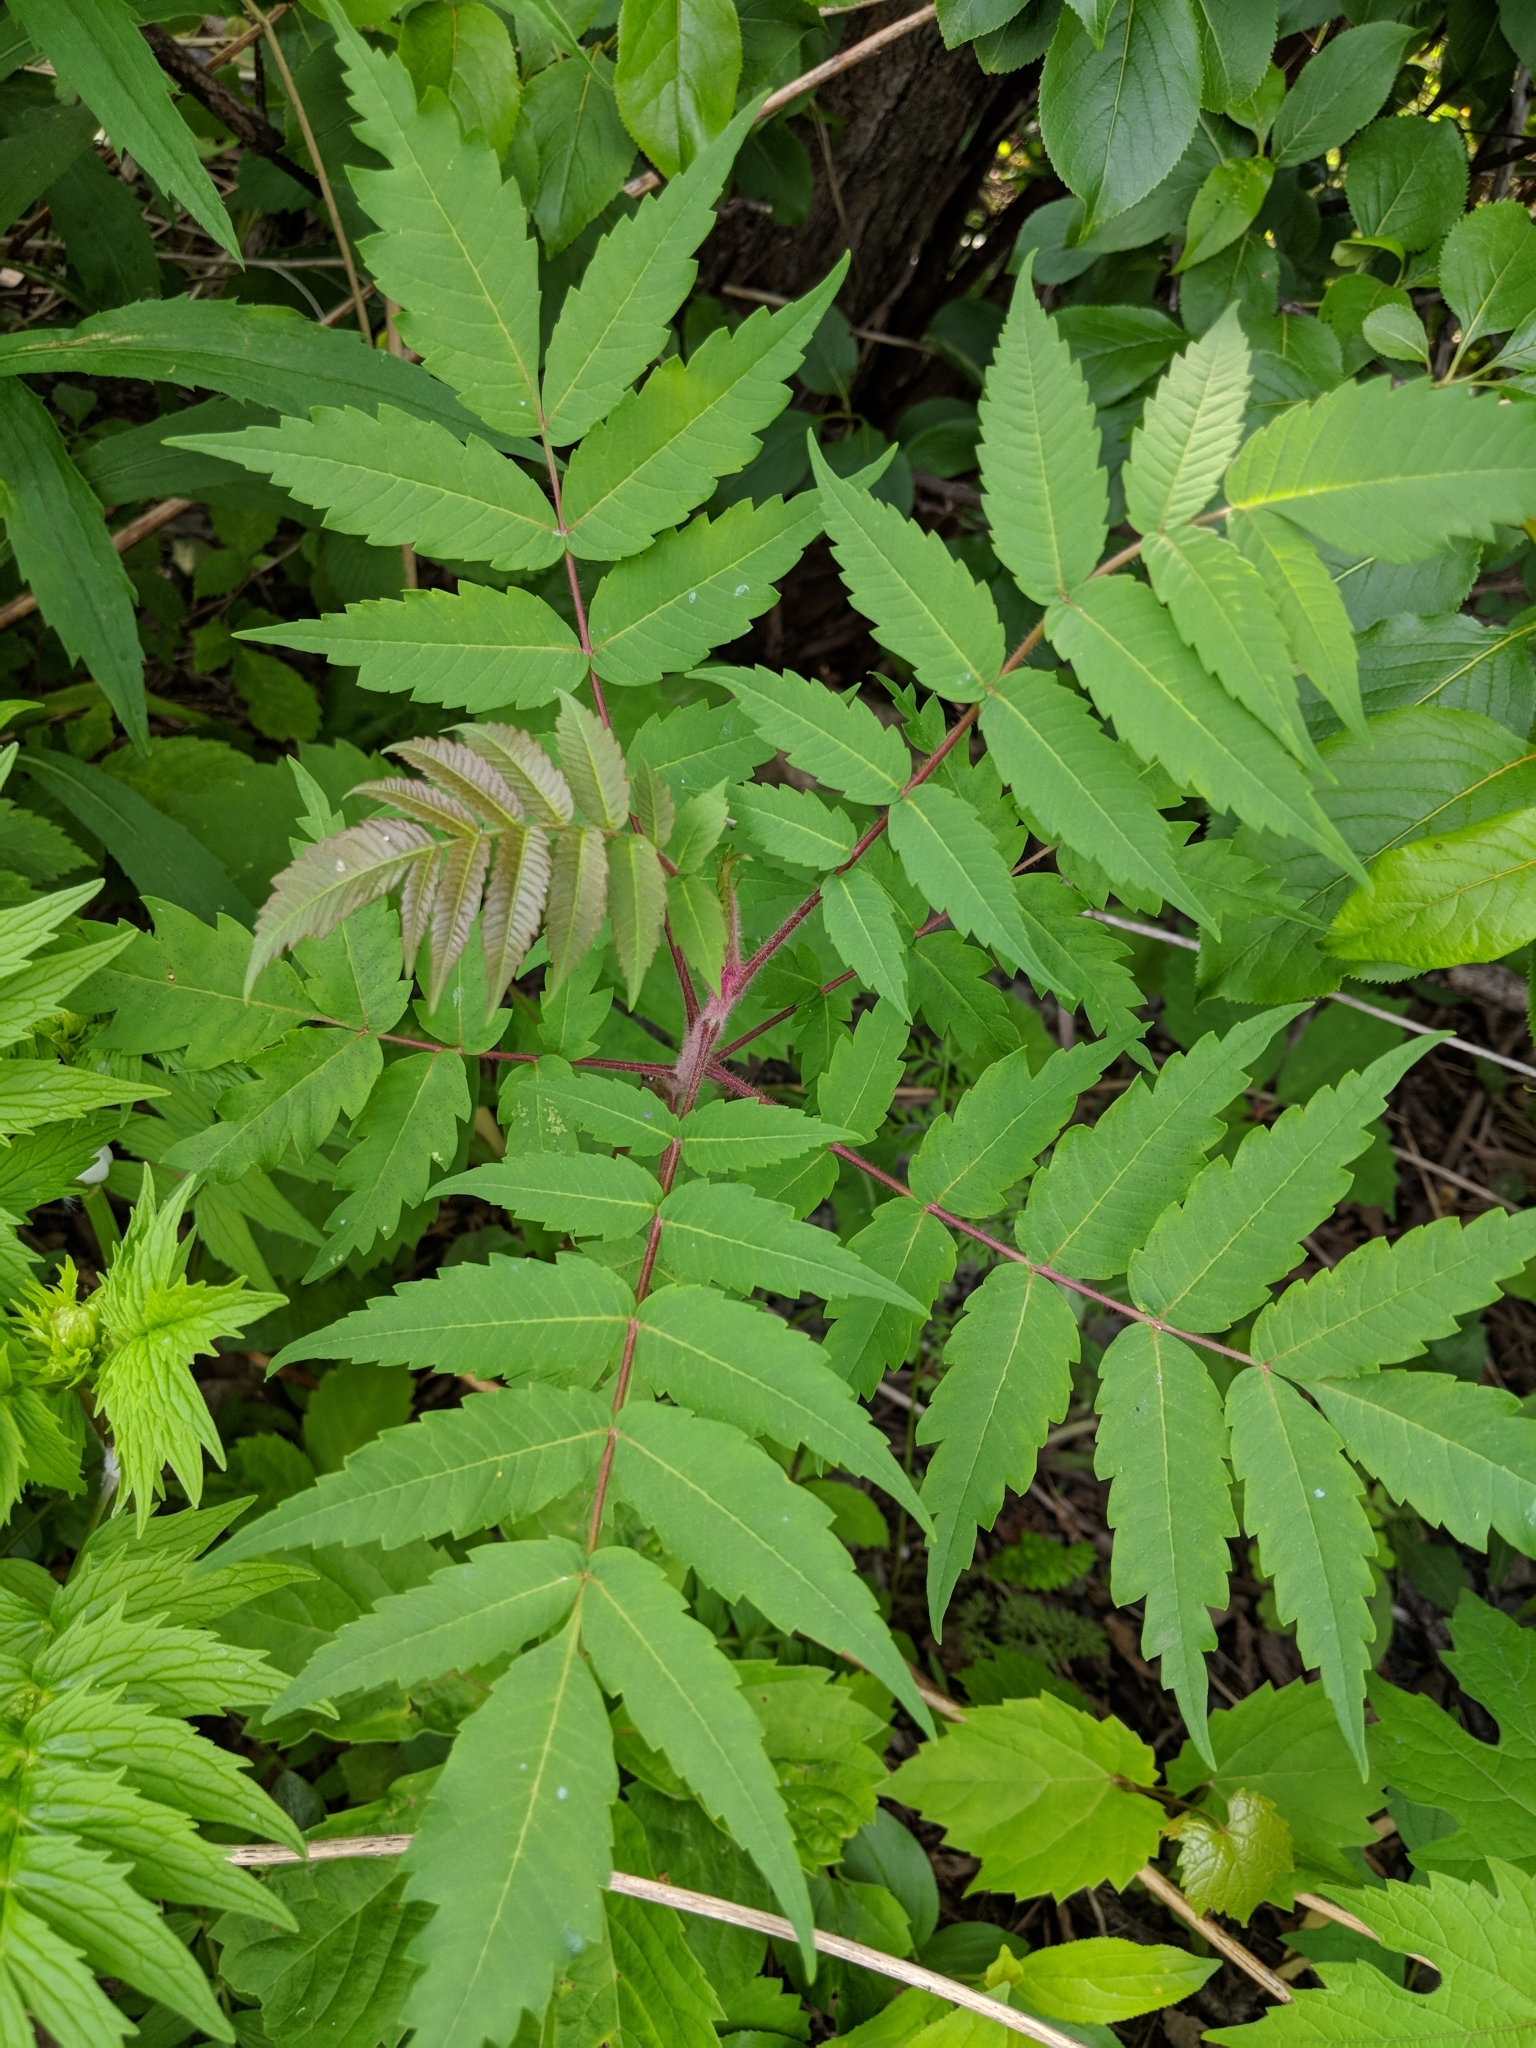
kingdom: Plantae
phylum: Tracheophyta
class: Magnoliopsida
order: Sapindales
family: Anacardiaceae
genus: Rhus
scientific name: Rhus typhina
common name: Staghorn sumac
